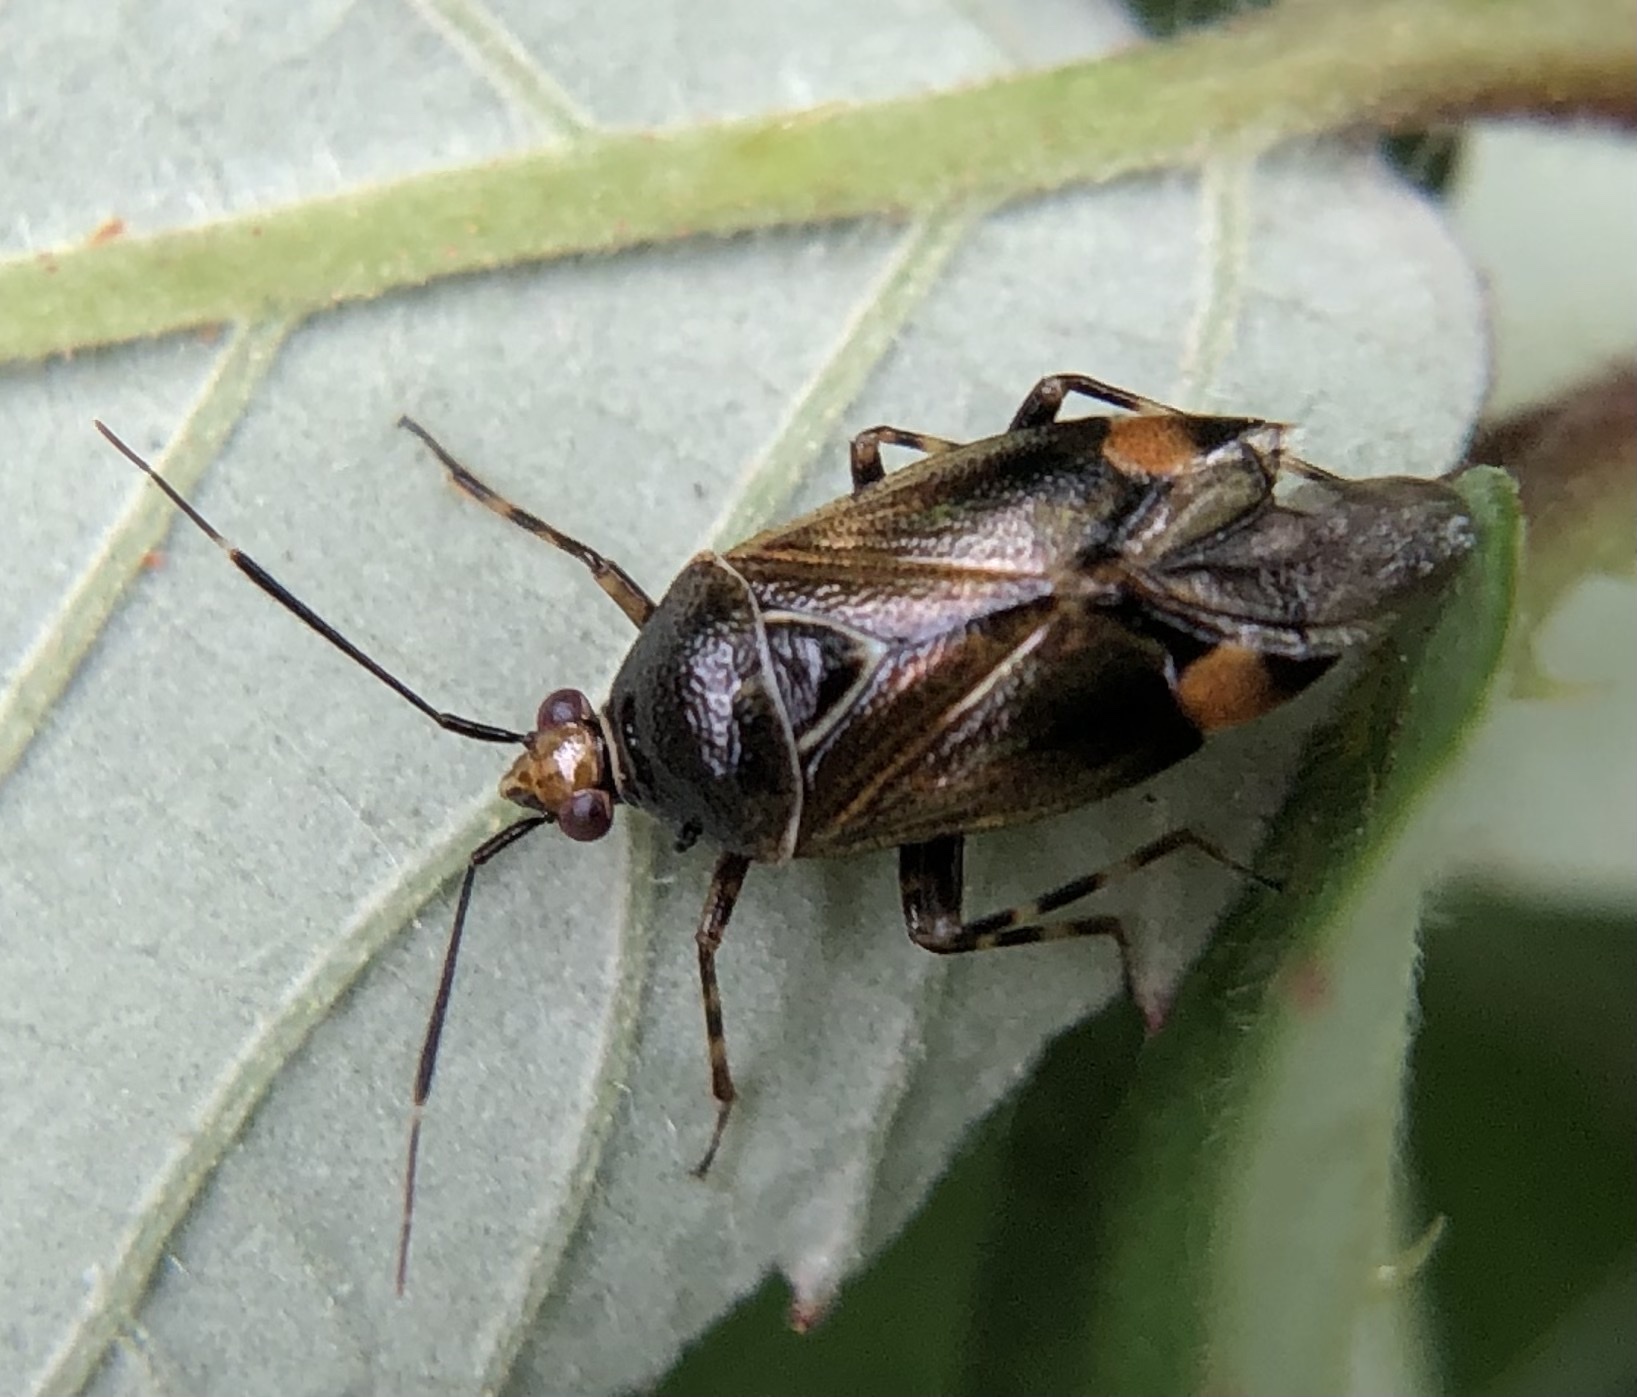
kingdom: Animalia
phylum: Arthropoda
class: Insecta
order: Hemiptera
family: Miridae
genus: Deraeocoris
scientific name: Deraeocoris flavilinea
